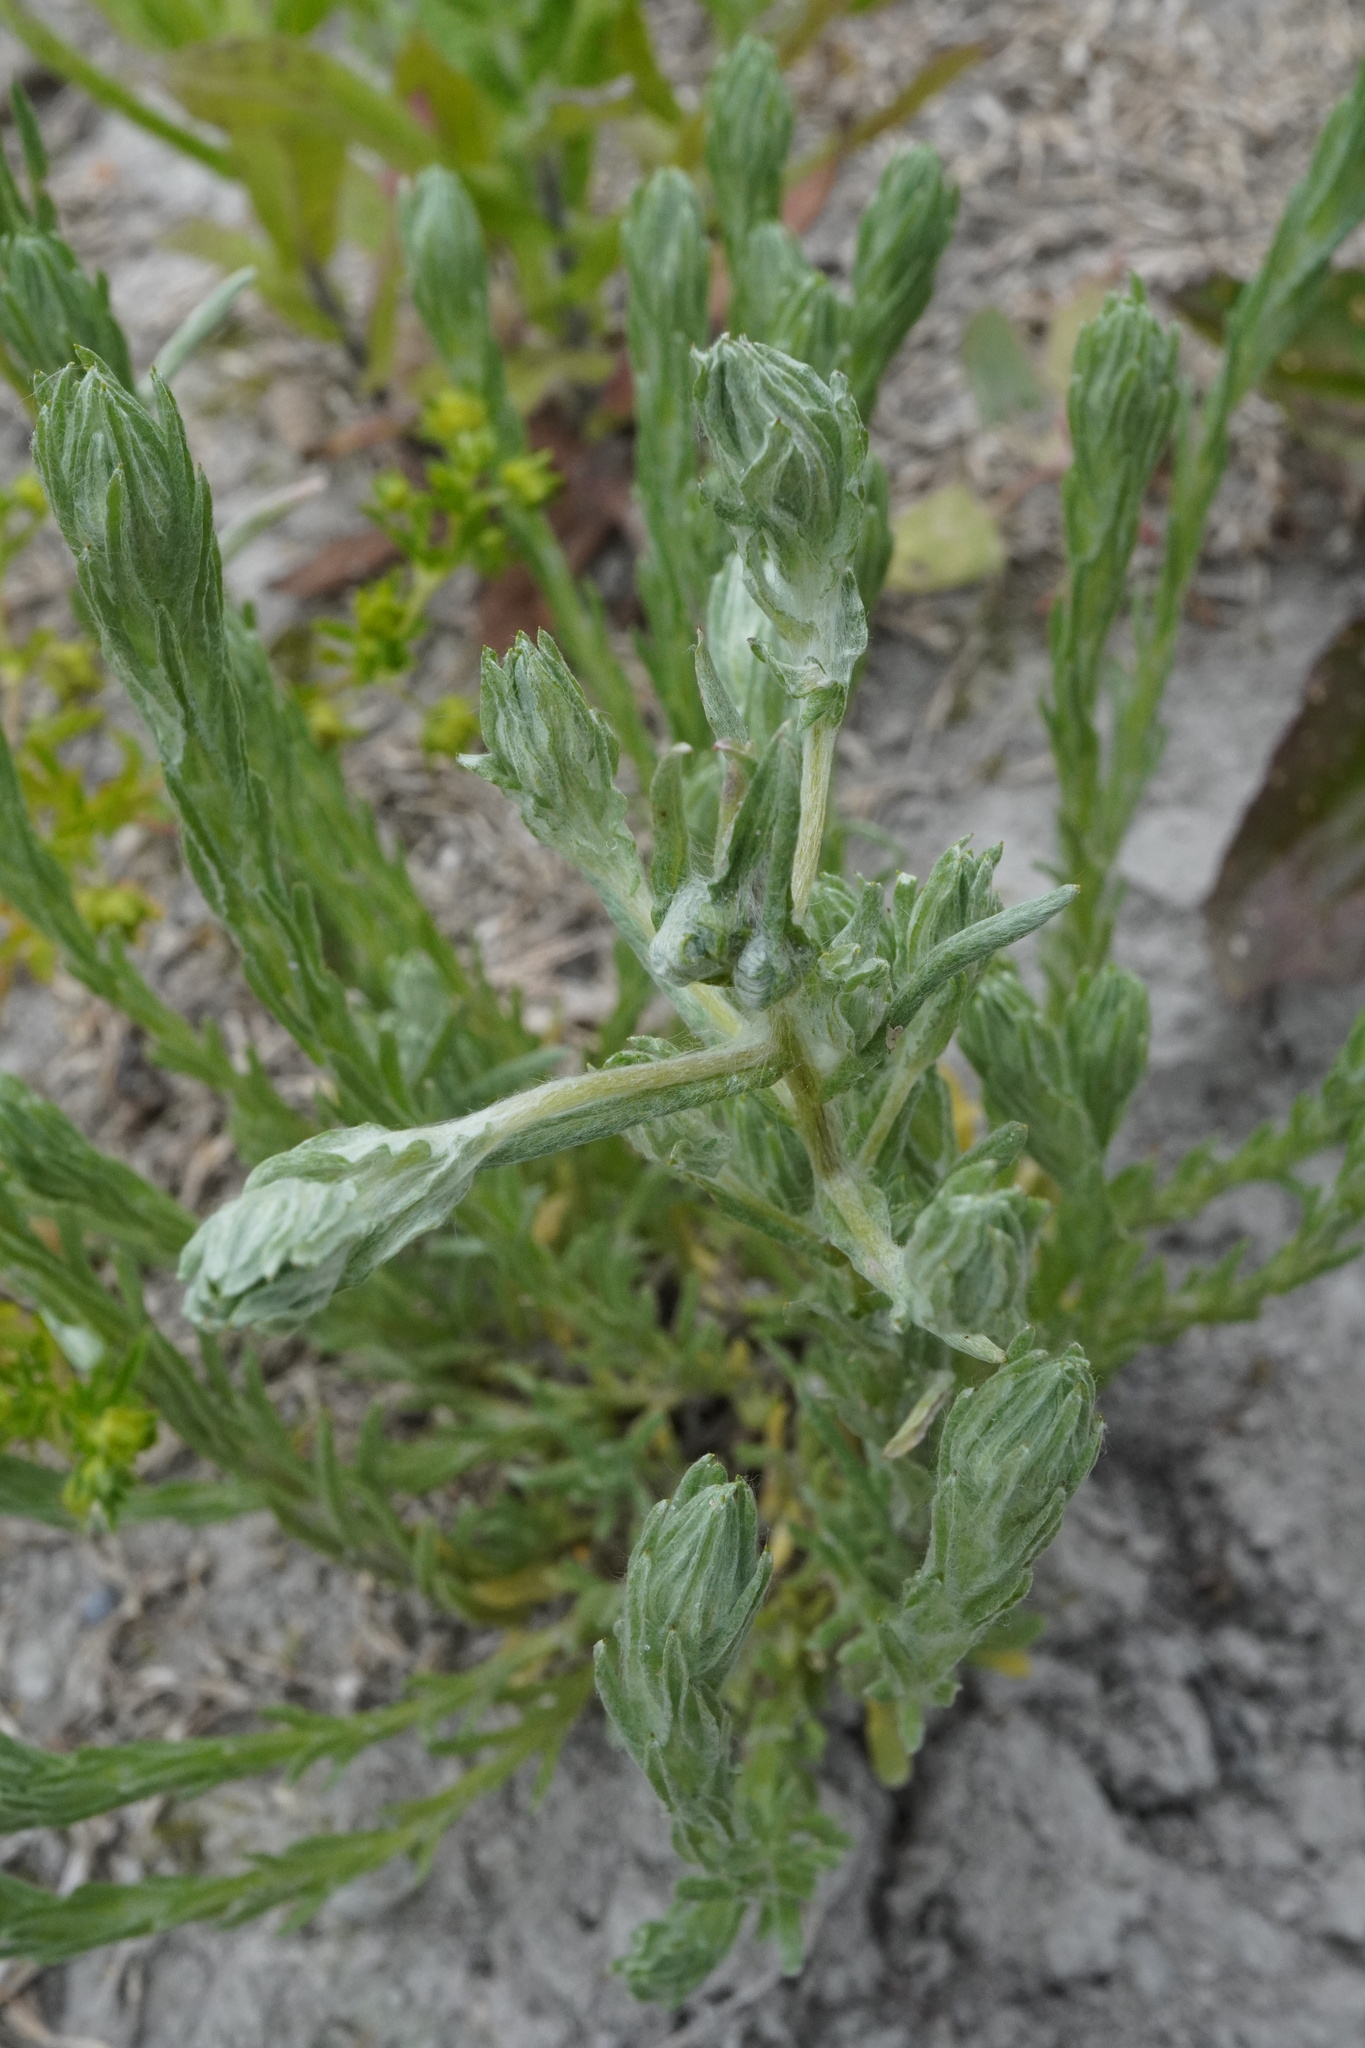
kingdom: Plantae
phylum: Tracheophyta
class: Magnoliopsida
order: Asterales
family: Asteraceae
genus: Filago
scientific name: Filago germanica
